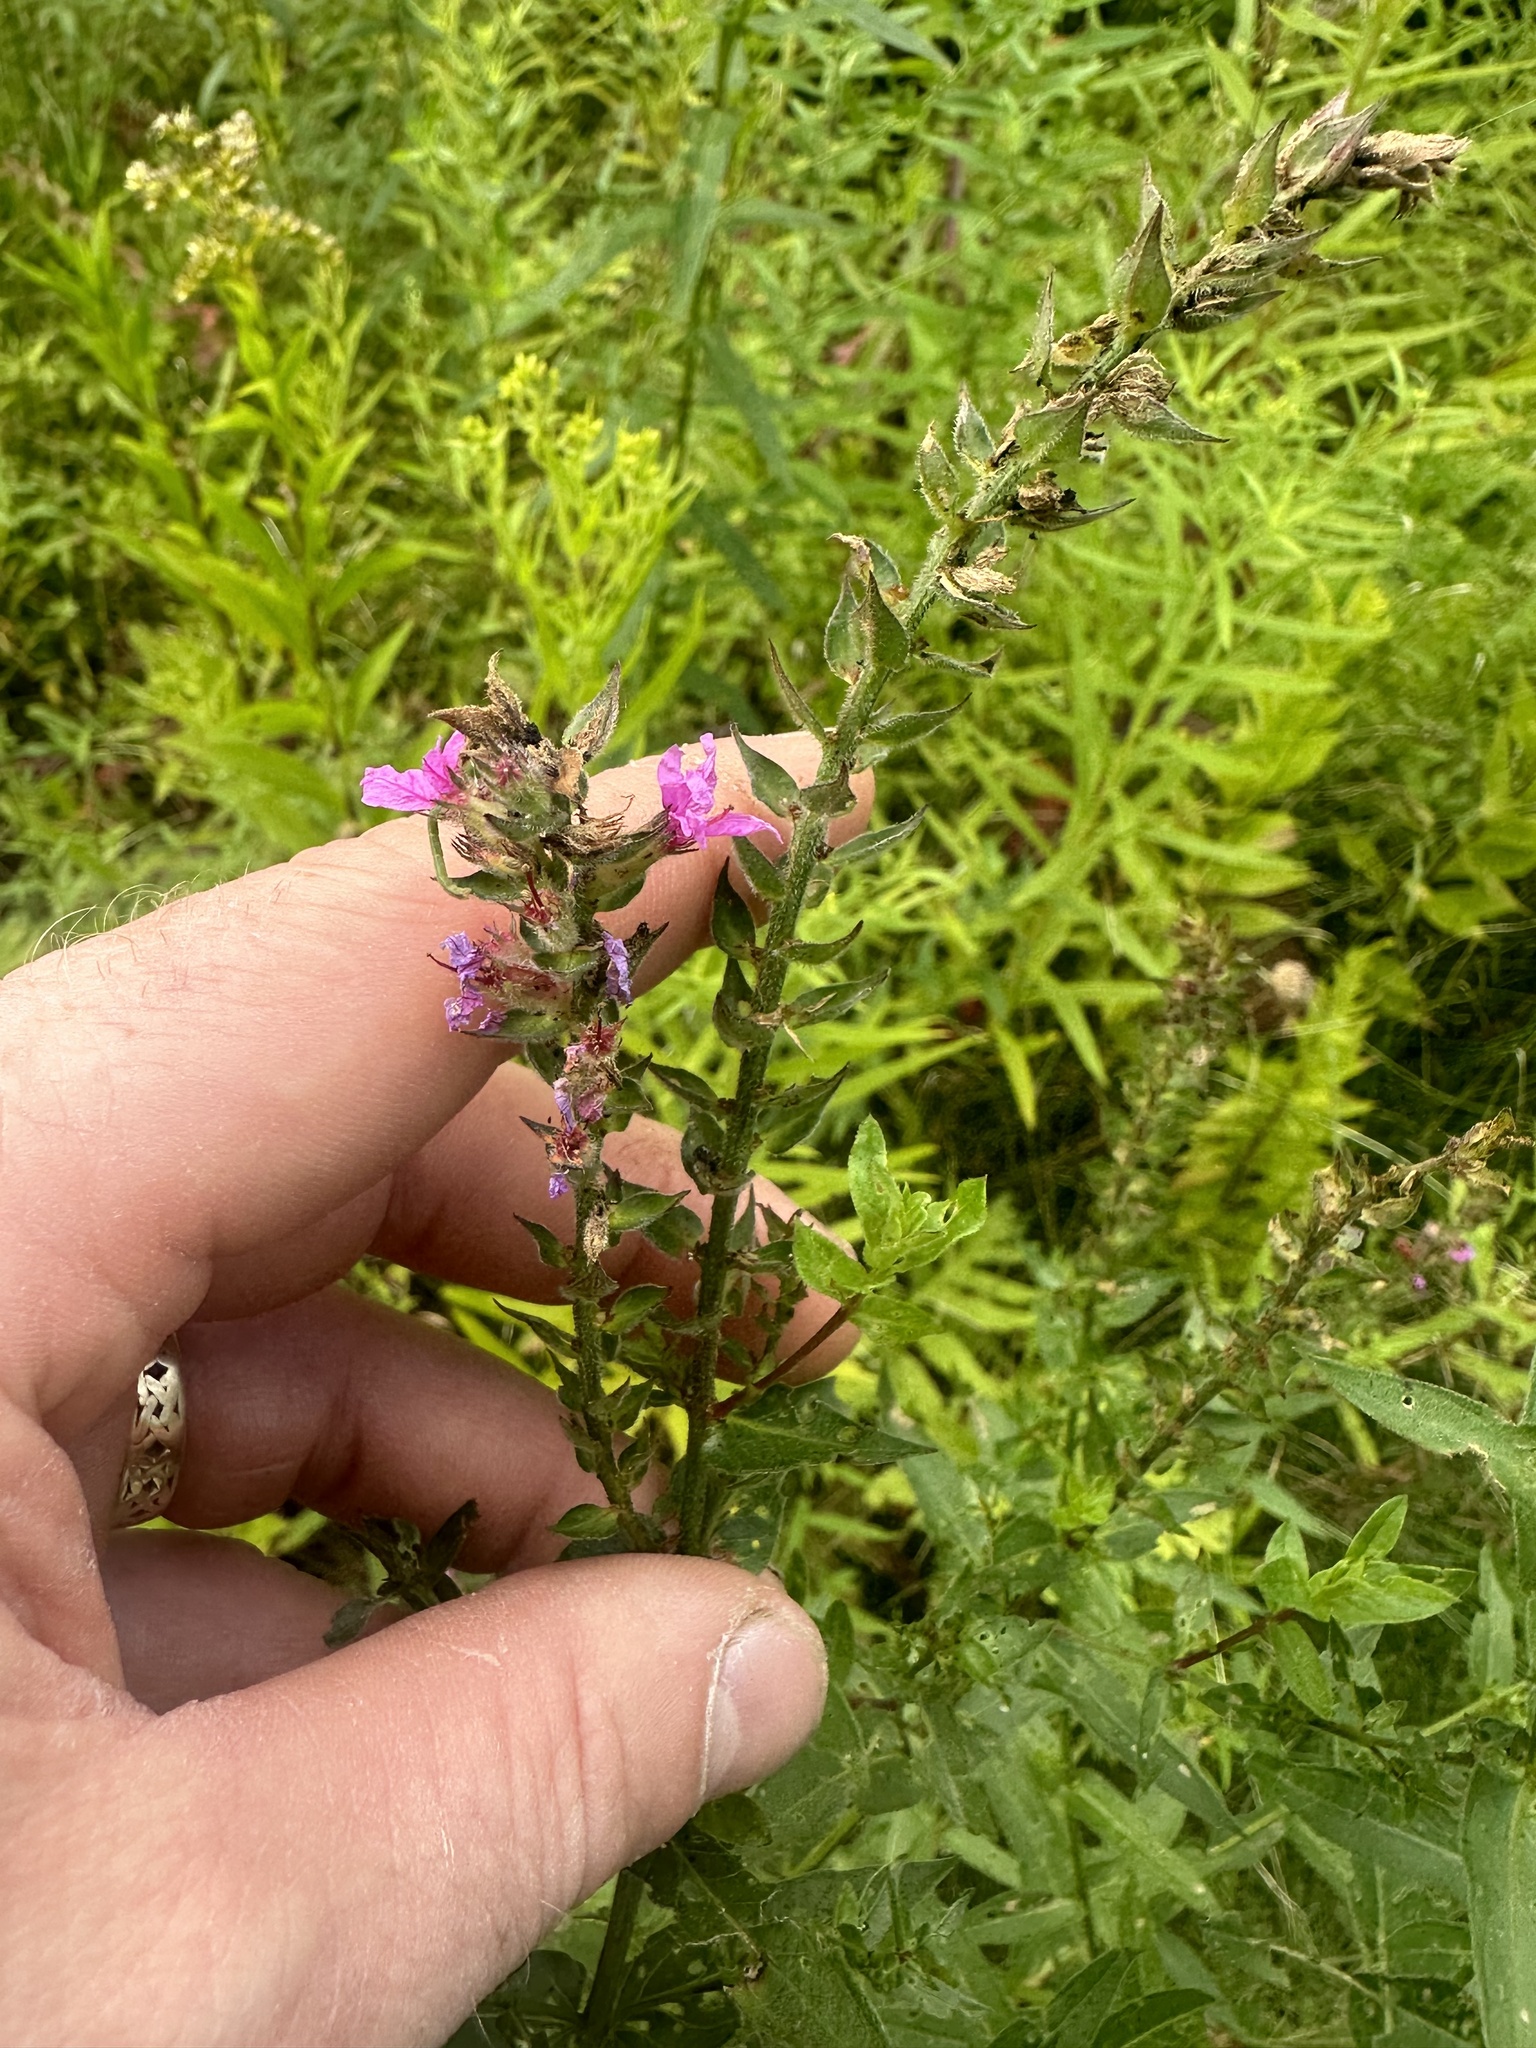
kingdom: Plantae
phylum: Tracheophyta
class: Magnoliopsida
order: Myrtales
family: Lythraceae
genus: Lythrum
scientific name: Lythrum salicaria
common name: Purple loosestrife
